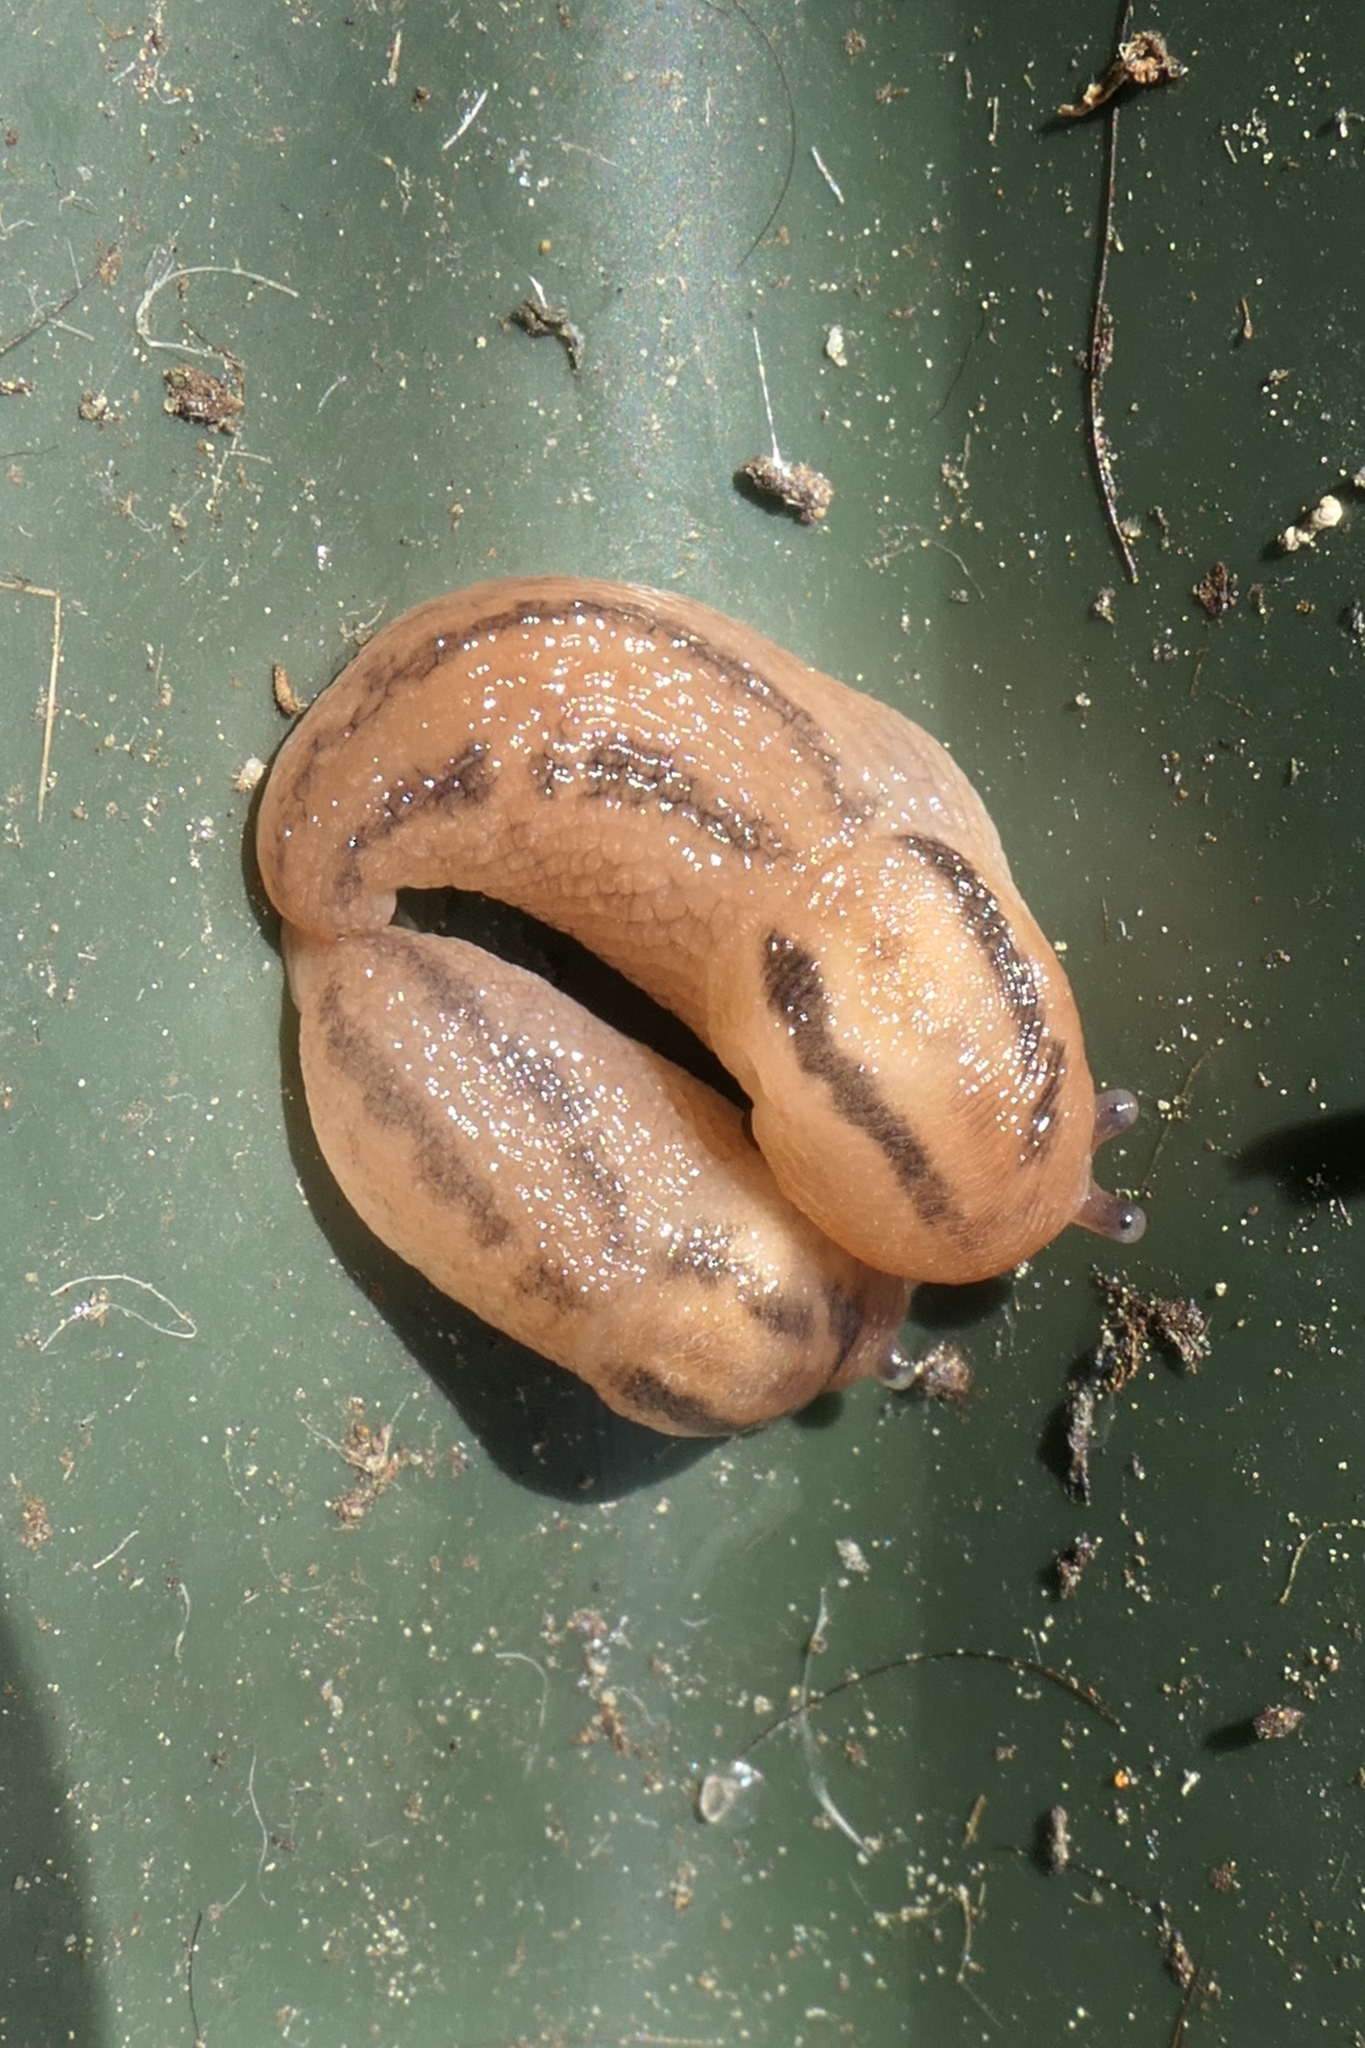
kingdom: Animalia
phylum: Mollusca
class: Gastropoda
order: Stylommatophora
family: Limacidae
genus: Ambigolimax
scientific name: Ambigolimax
